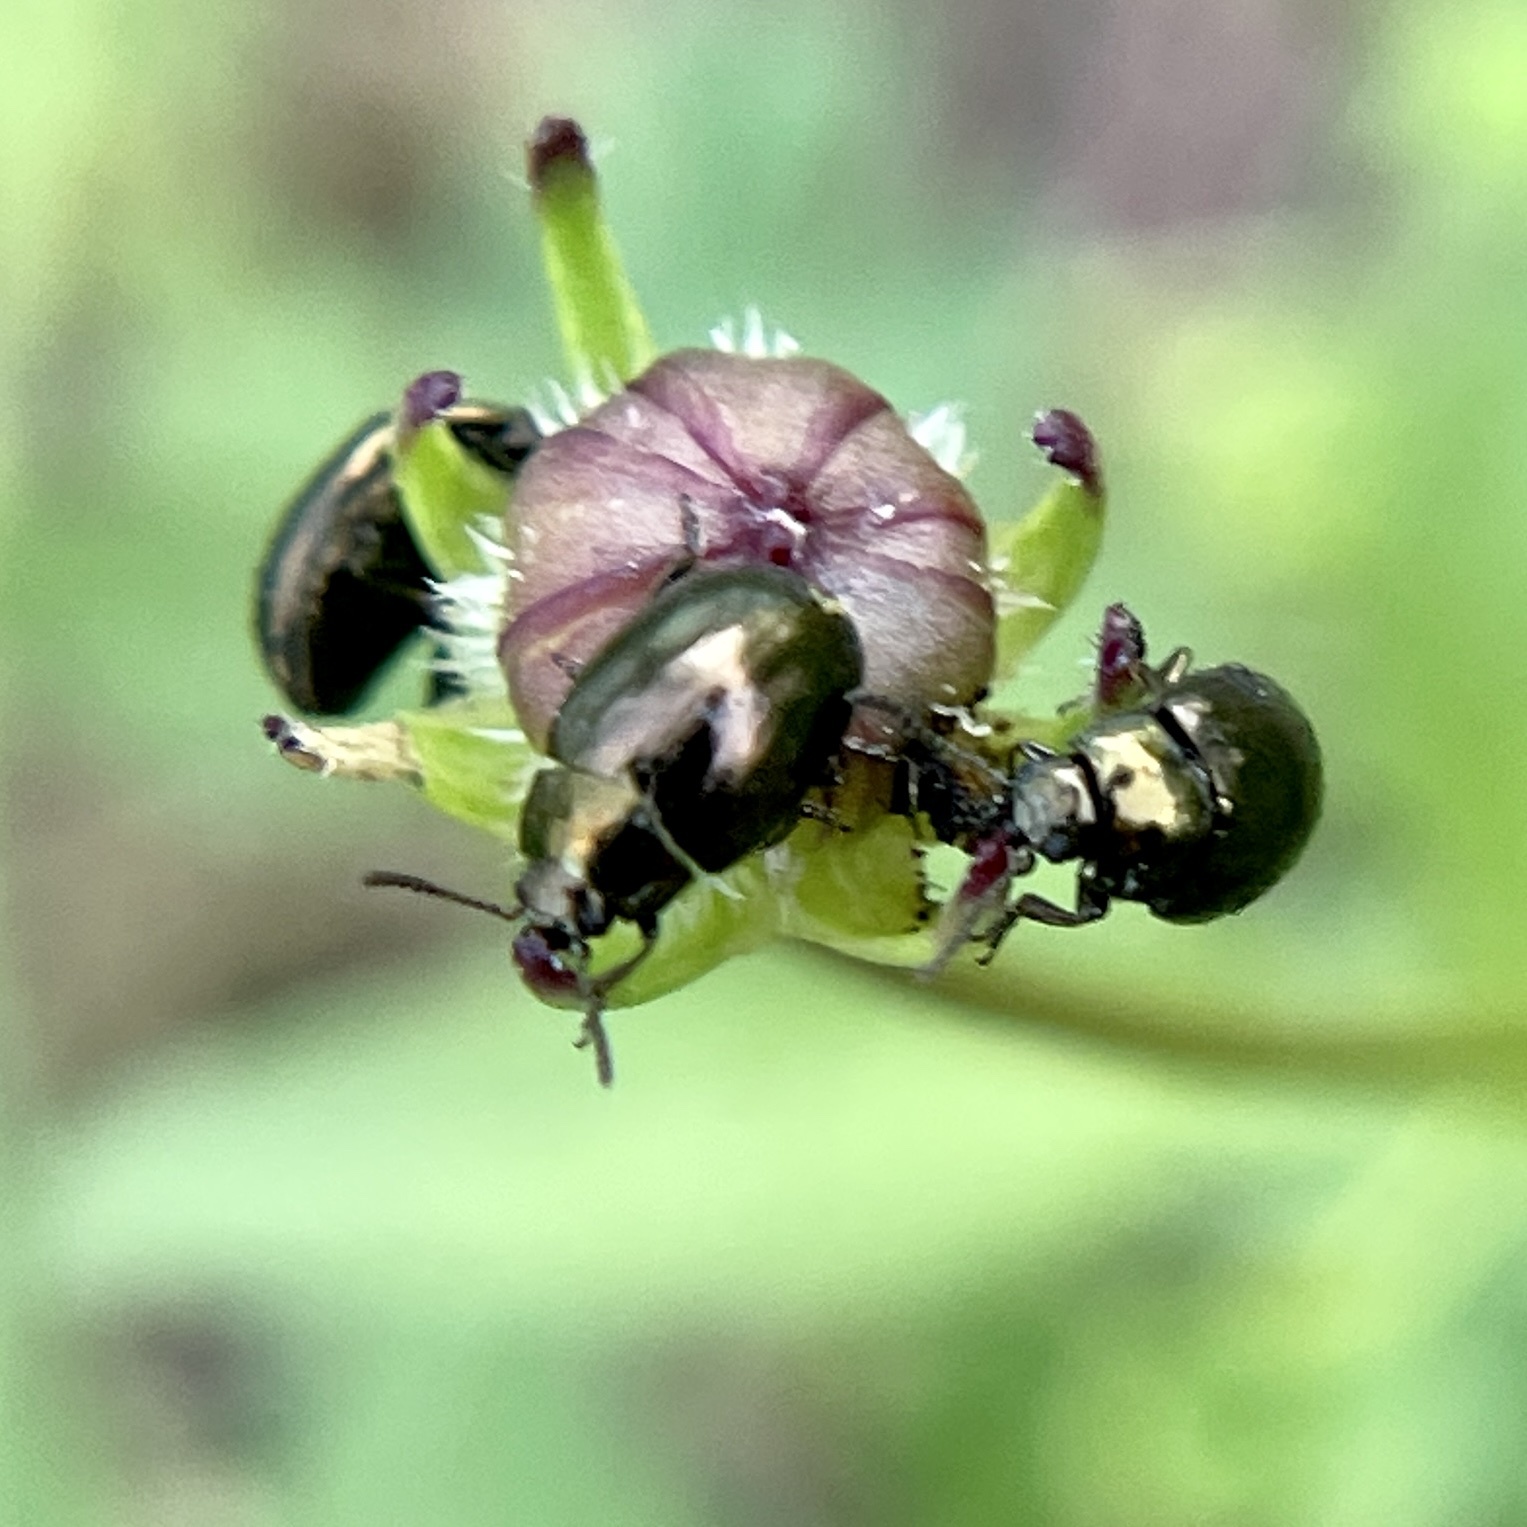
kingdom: Animalia
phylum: Arthropoda
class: Insecta
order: Coleoptera
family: Chrysomelidae
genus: Phaedon
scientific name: Phaedon desotonis
